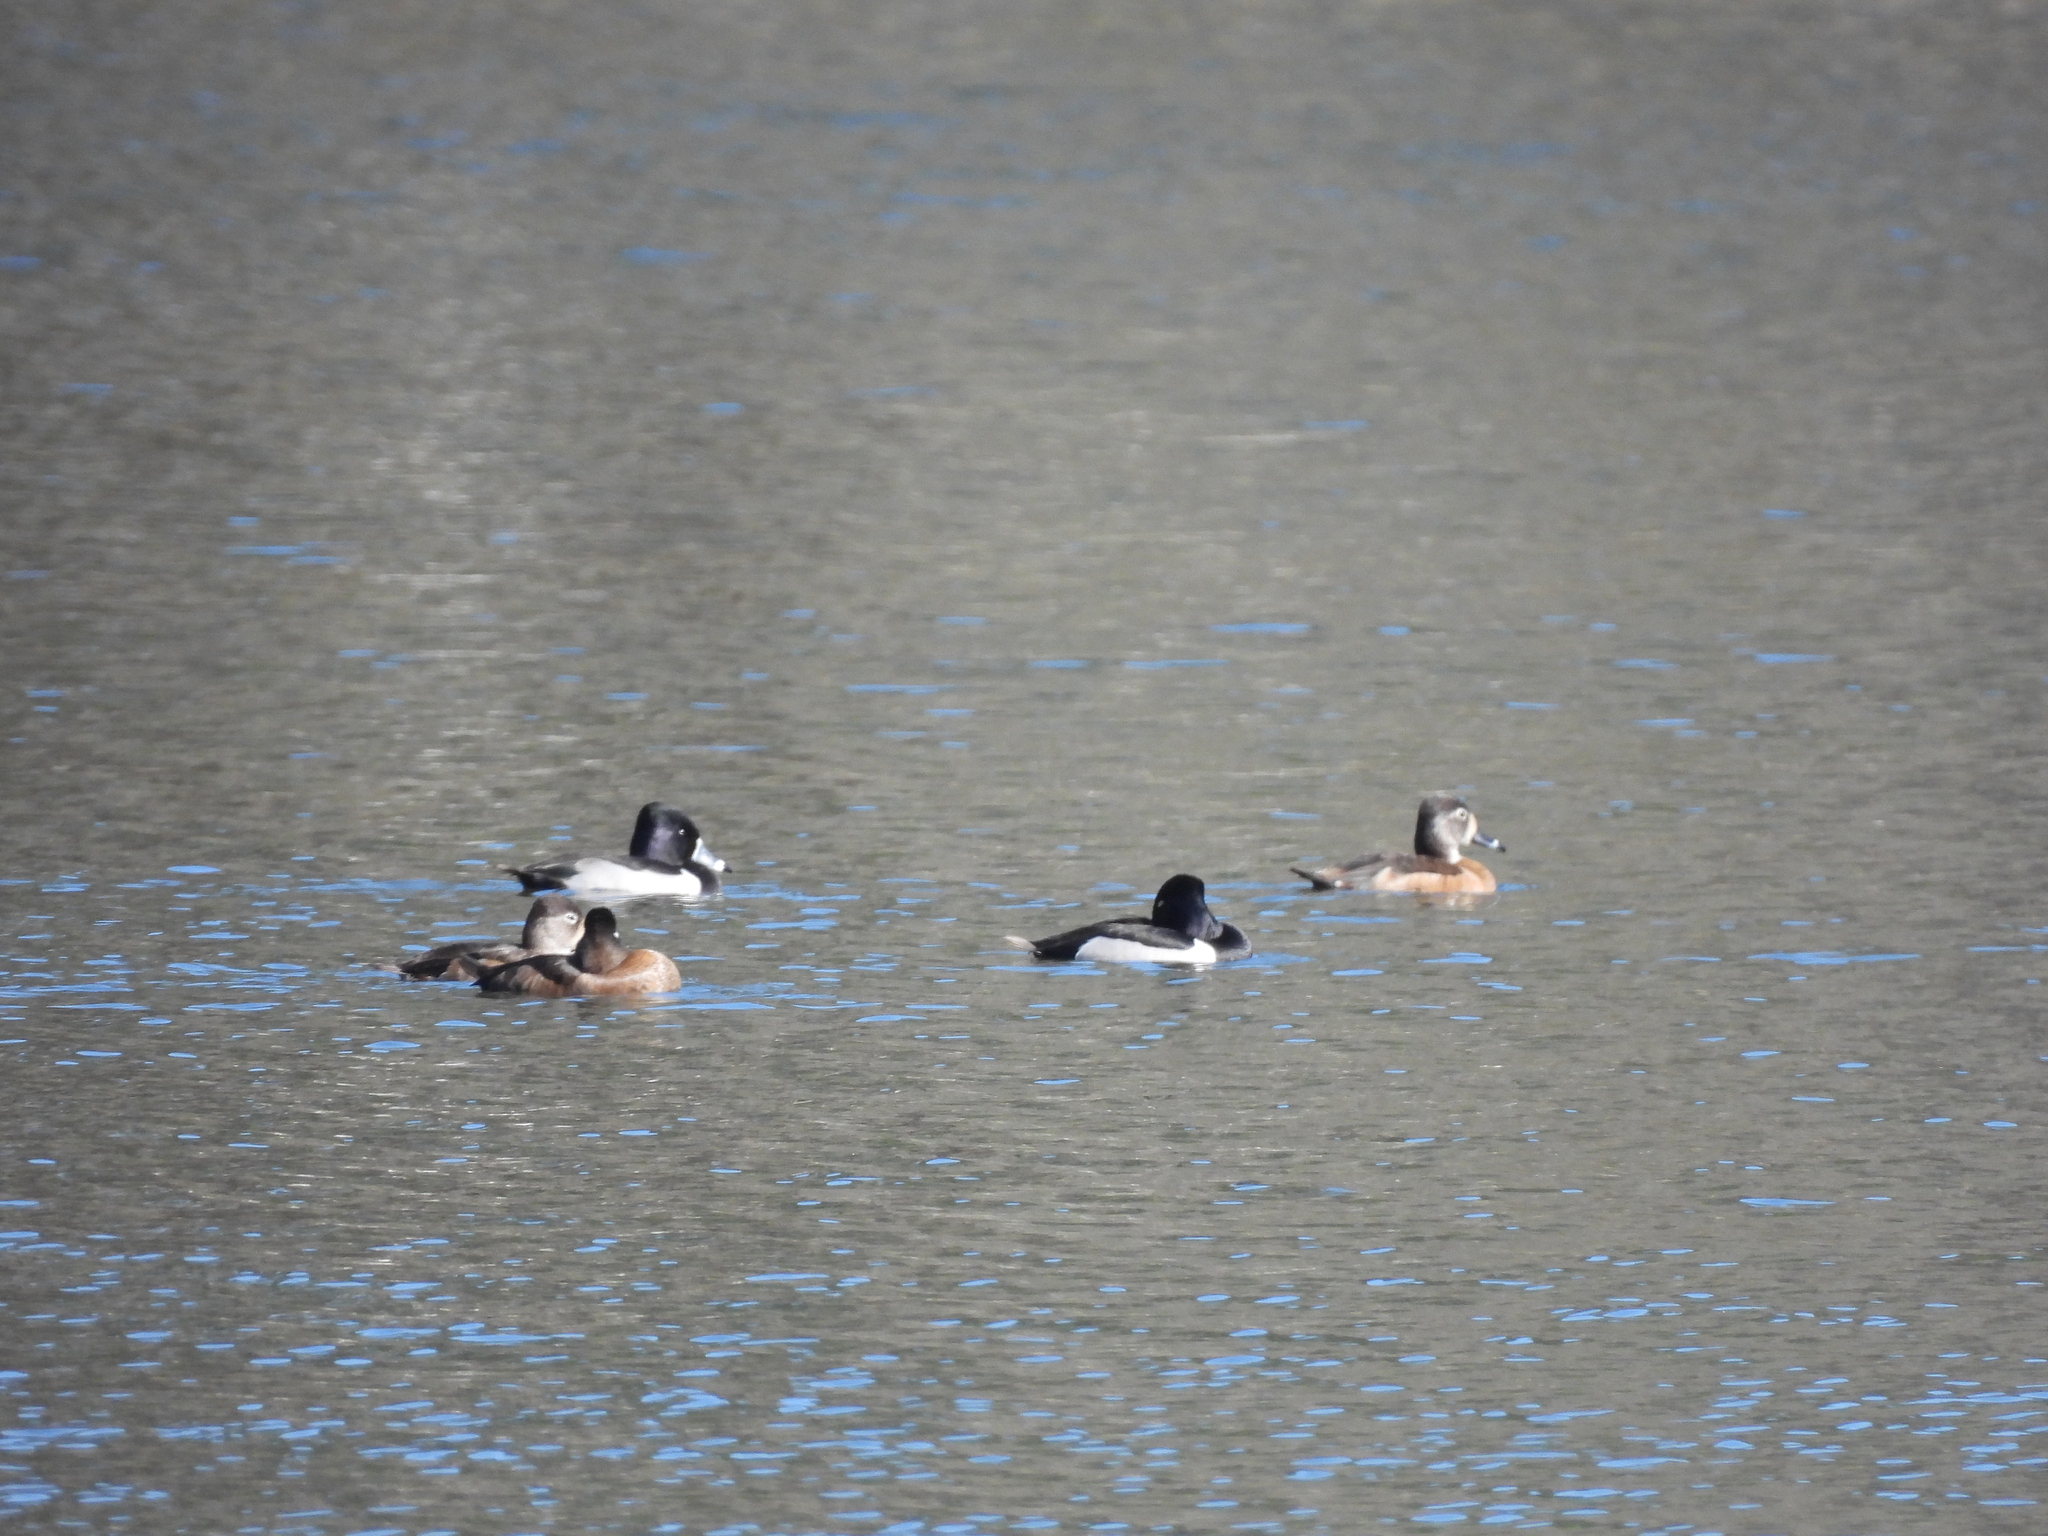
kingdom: Animalia
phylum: Chordata
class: Aves
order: Anseriformes
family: Anatidae
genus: Aythya
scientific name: Aythya collaris
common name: Ring-necked duck
